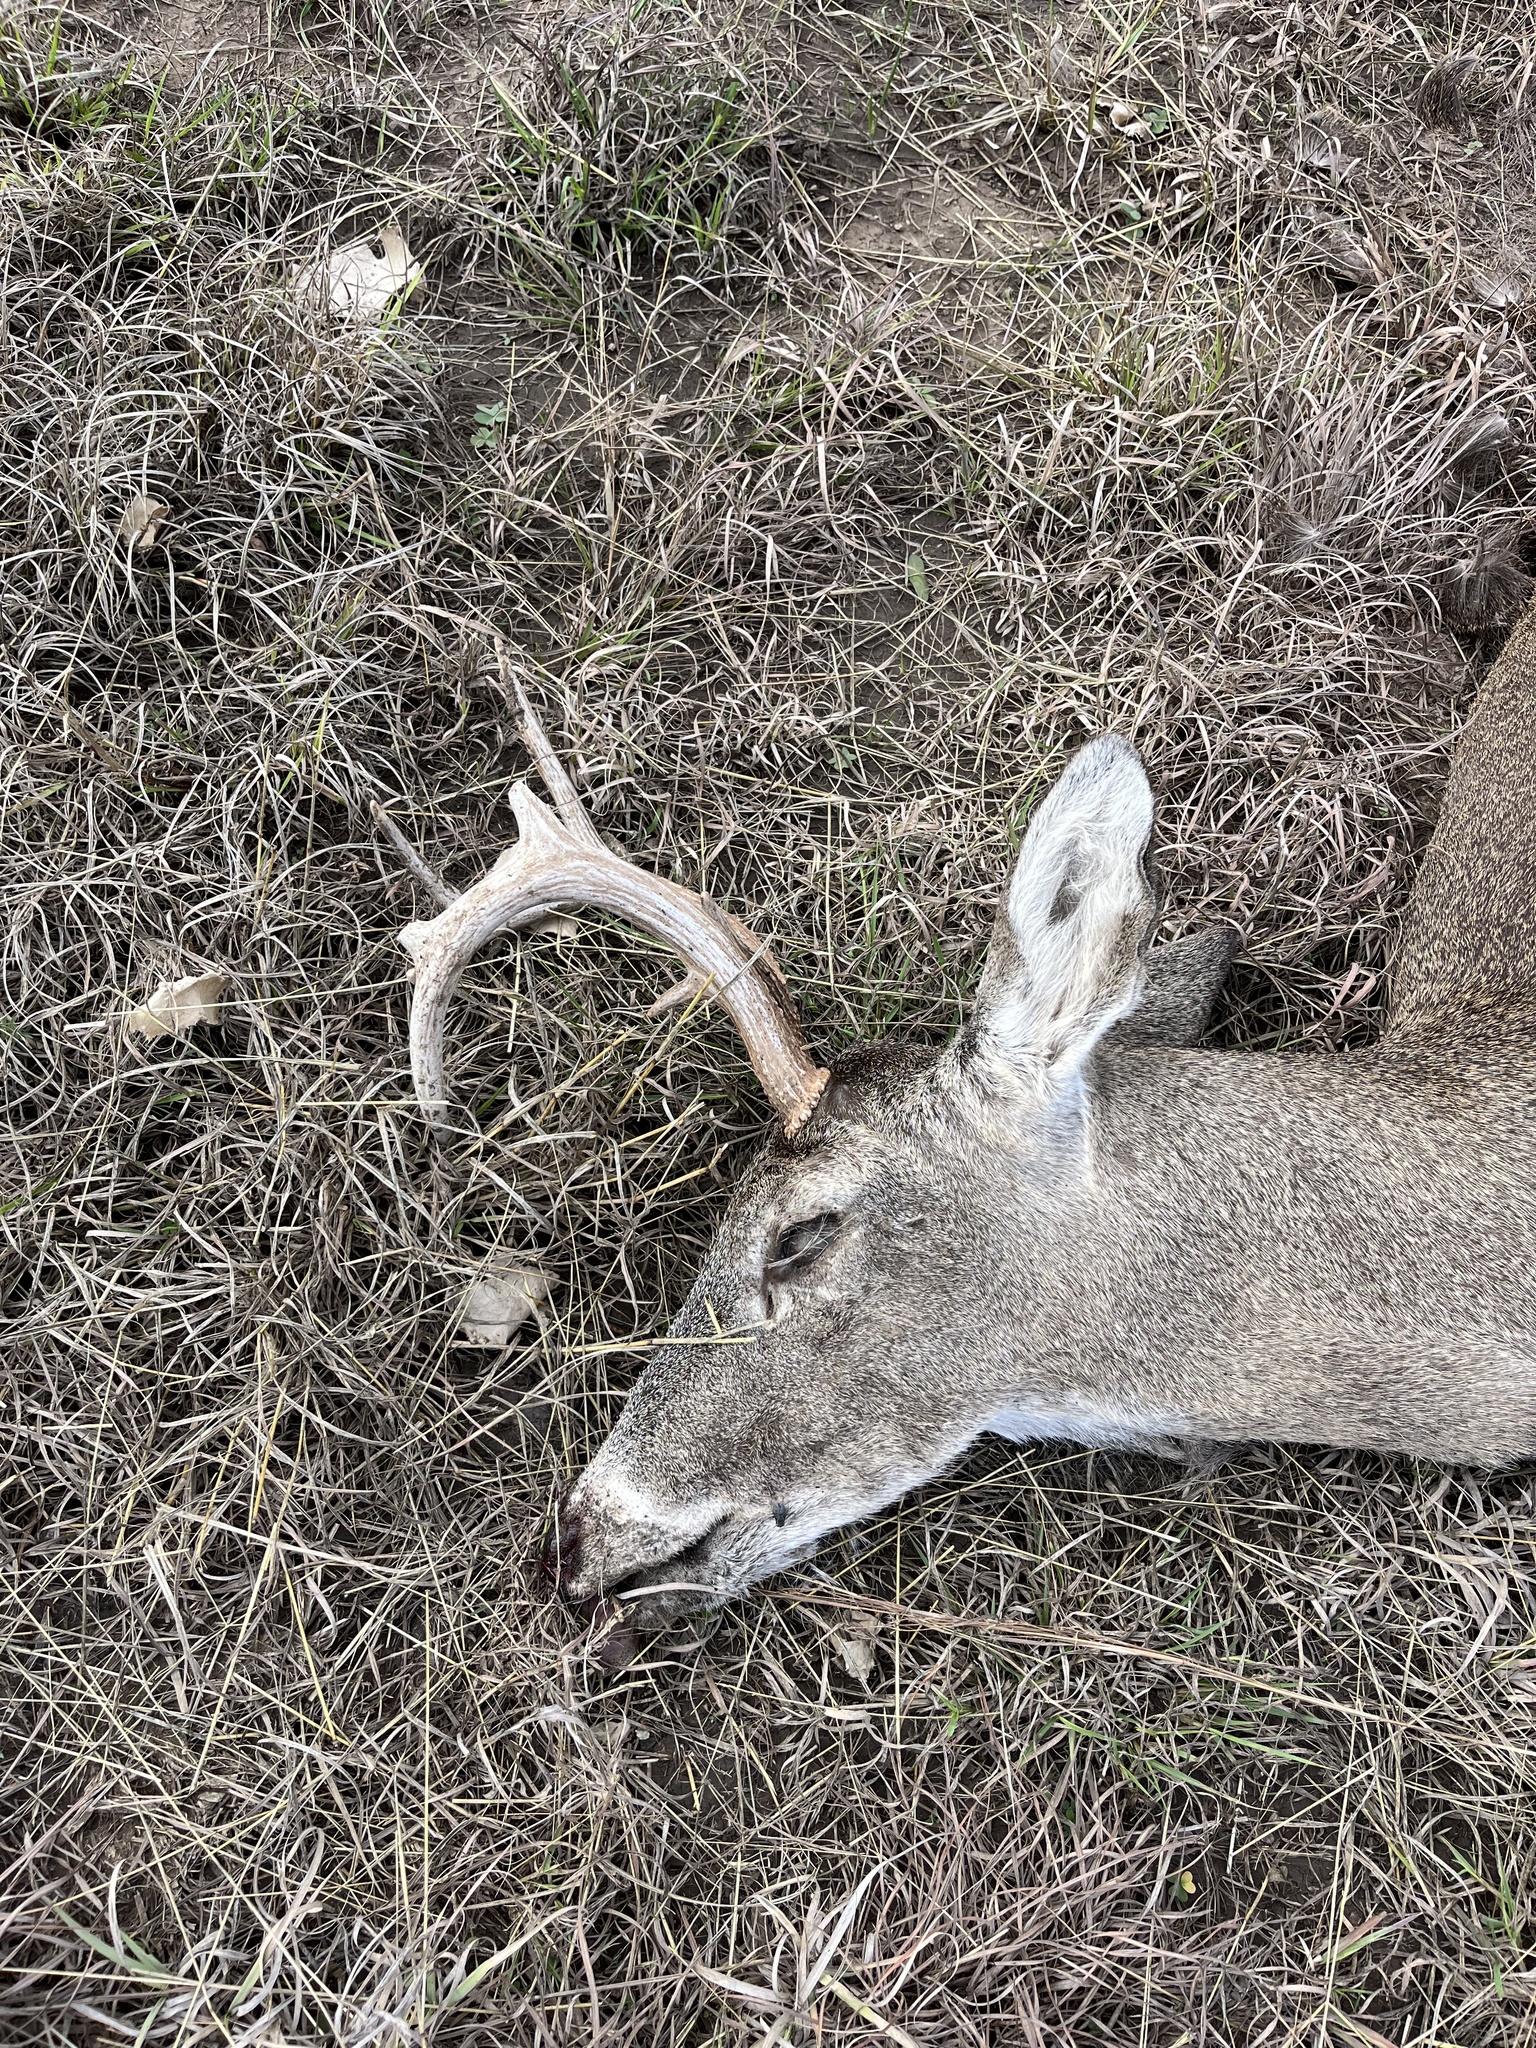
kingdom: Animalia
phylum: Chordata
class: Mammalia
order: Artiodactyla
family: Cervidae
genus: Odocoileus
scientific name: Odocoileus virginianus
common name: White-tailed deer
